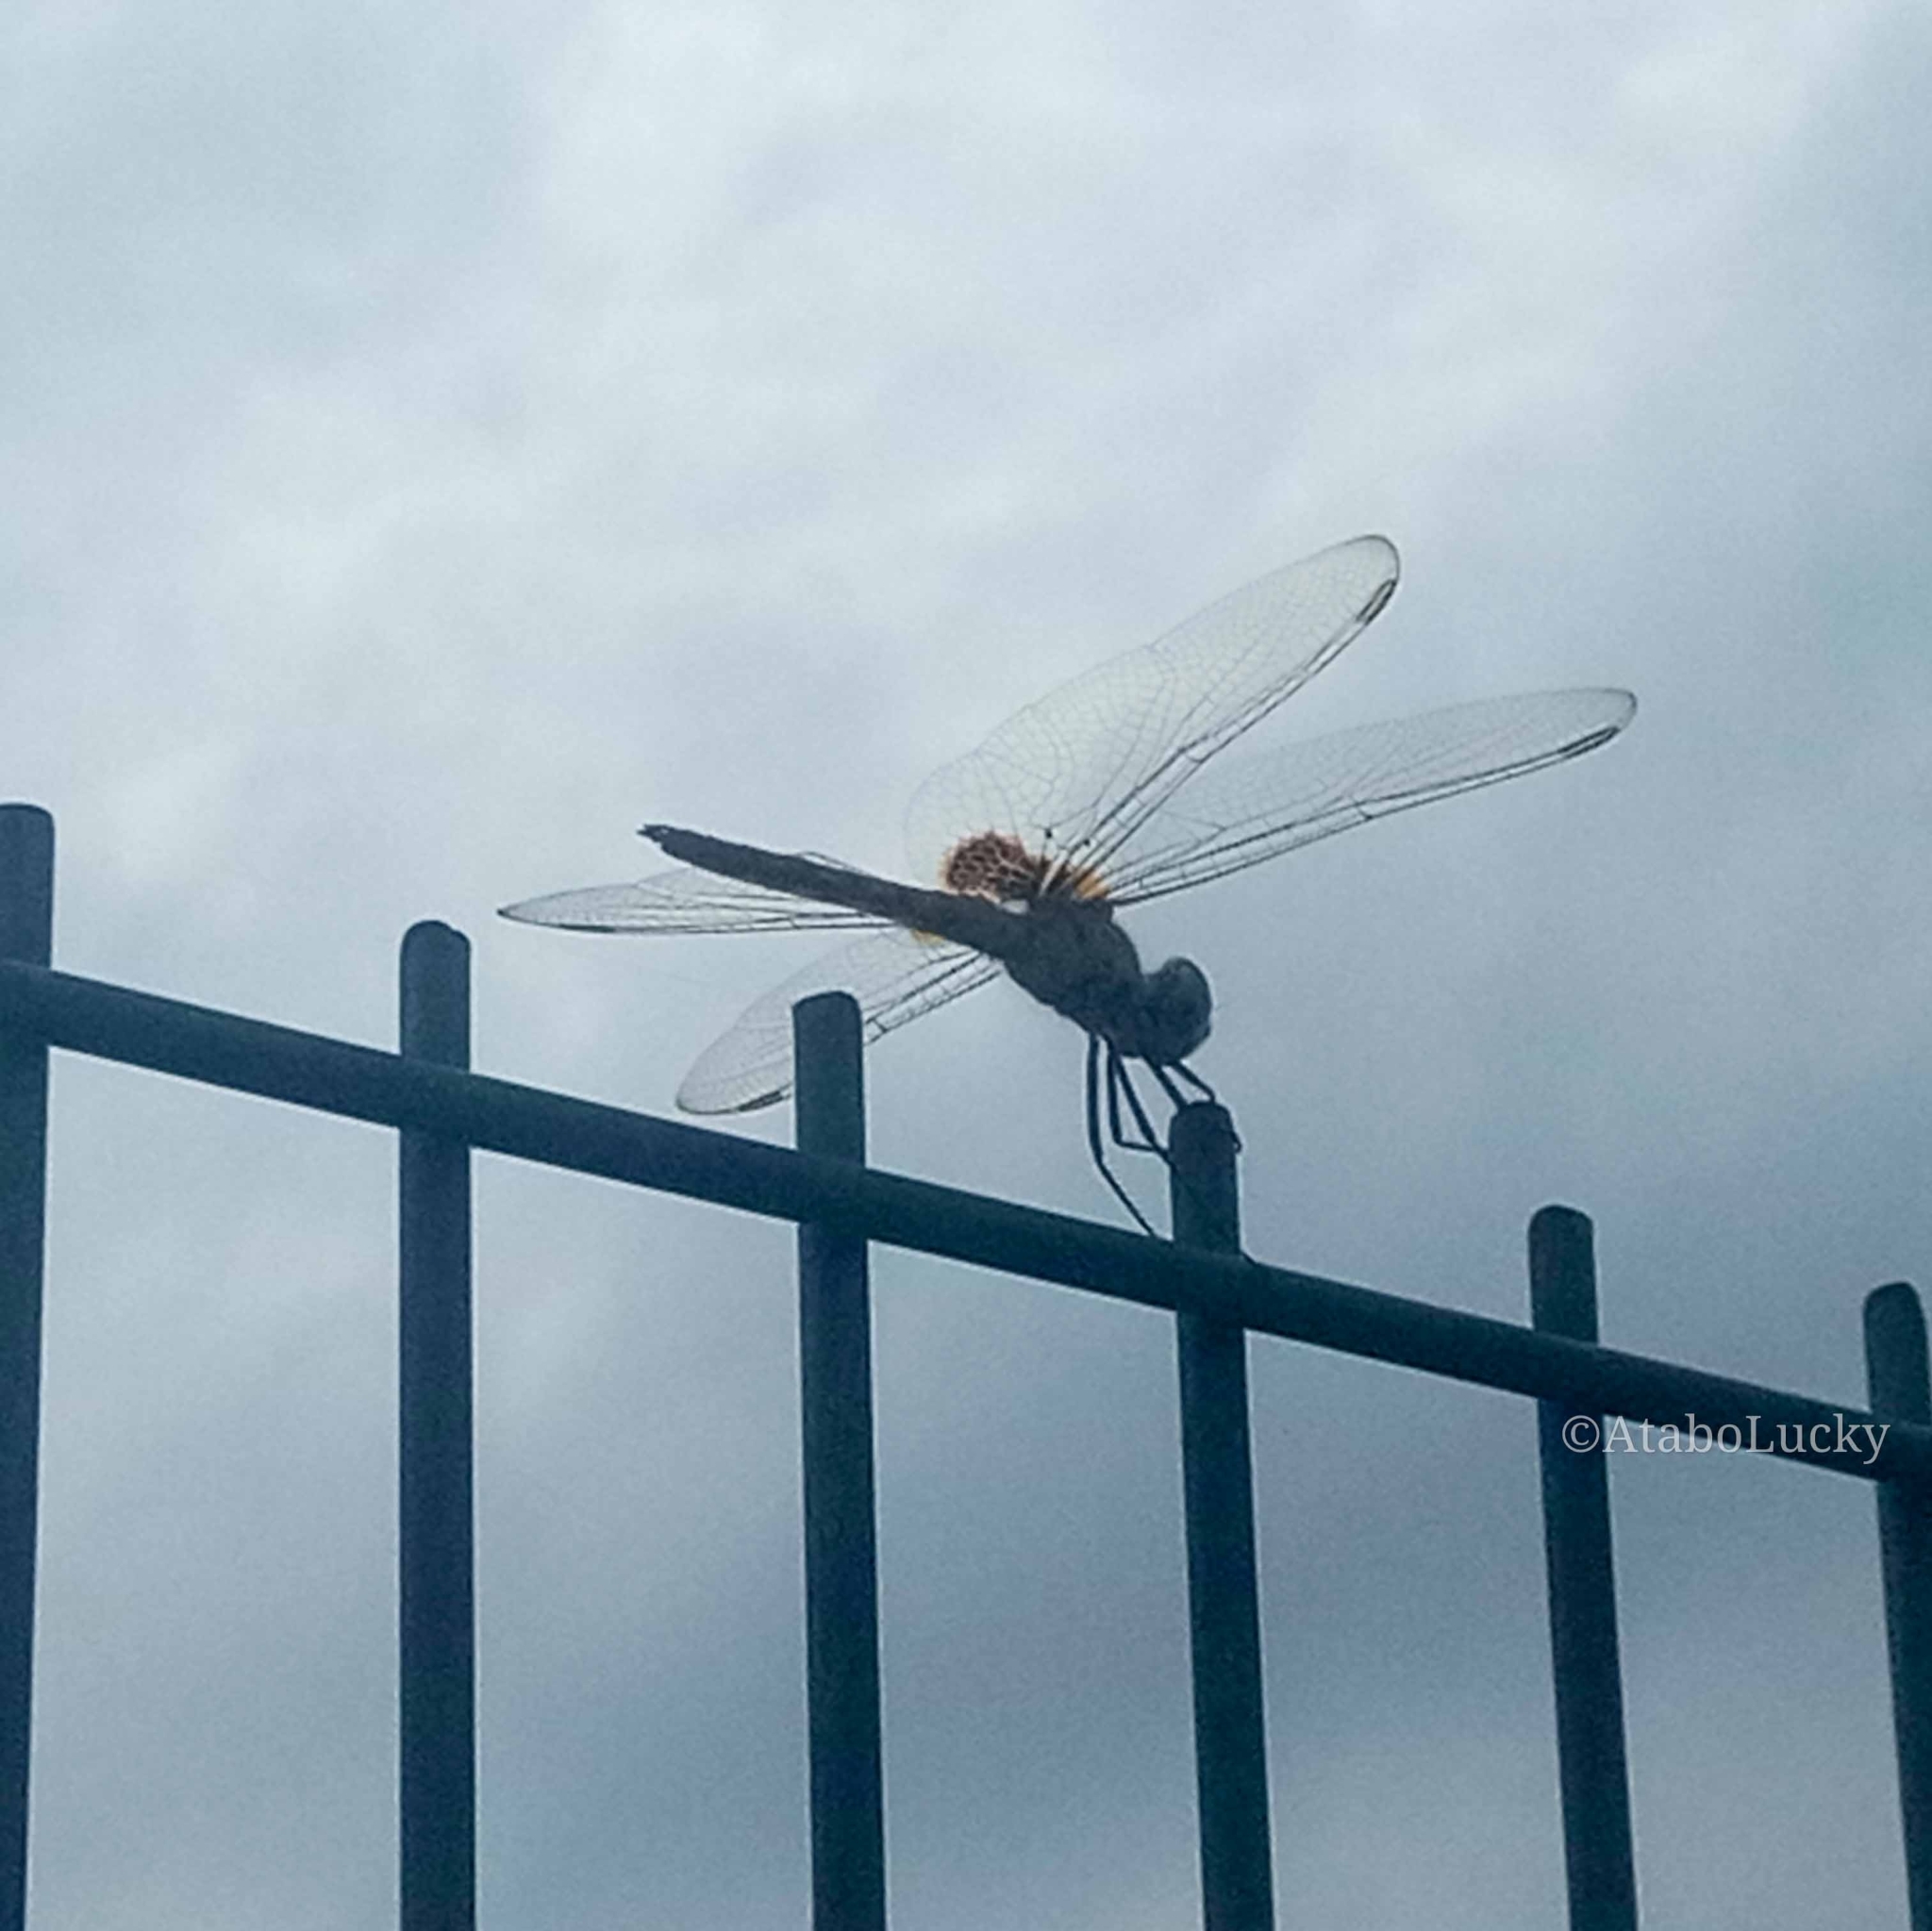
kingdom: Animalia
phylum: Arthropoda
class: Insecta
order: Odonata
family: Libellulidae
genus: Urothemis
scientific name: Urothemis edwardsii
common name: Blue basker
